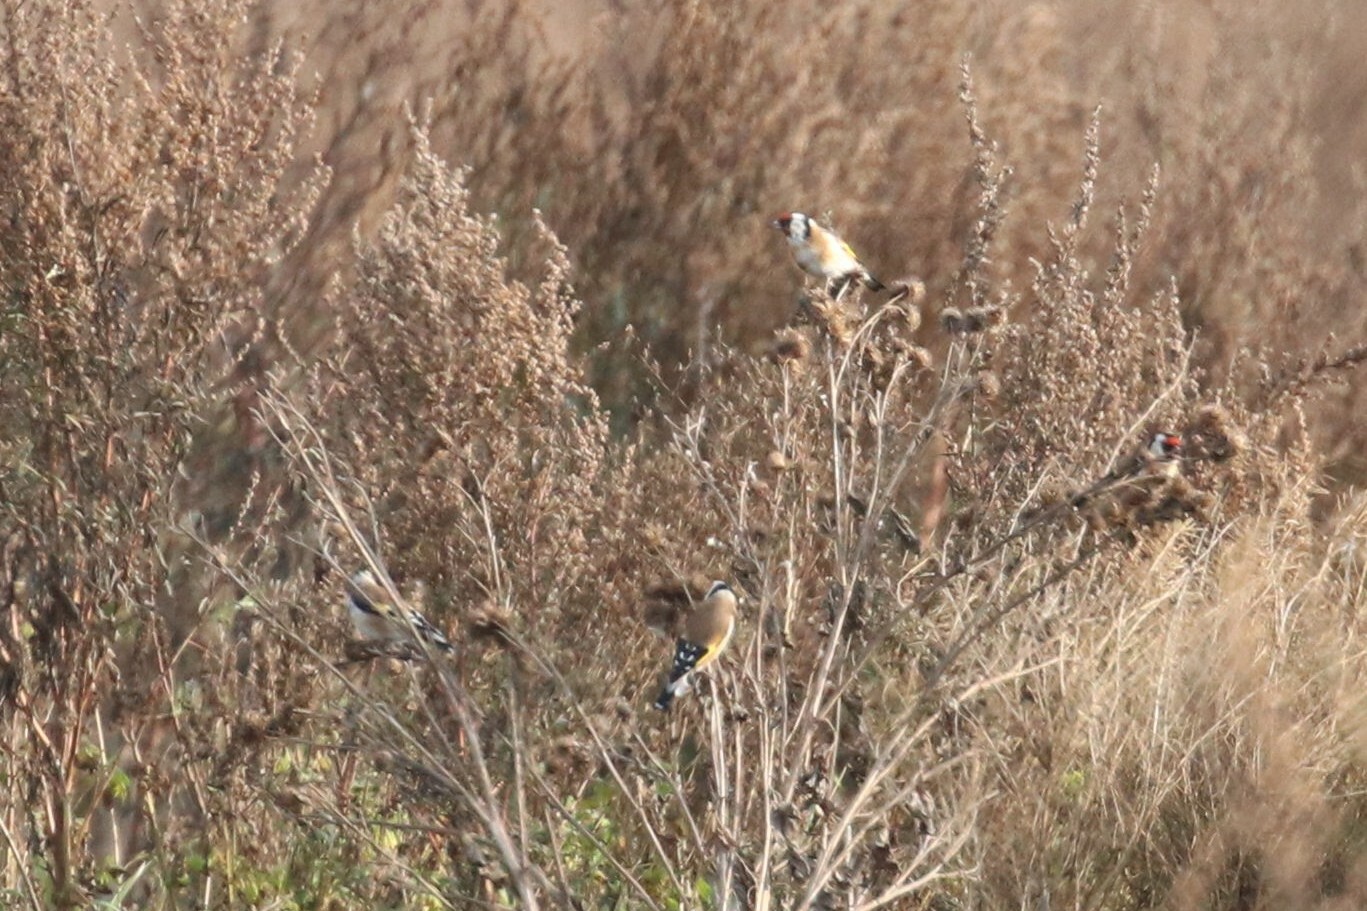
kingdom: Animalia
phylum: Chordata
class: Aves
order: Passeriformes
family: Fringillidae
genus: Carduelis
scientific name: Carduelis carduelis
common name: European goldfinch
